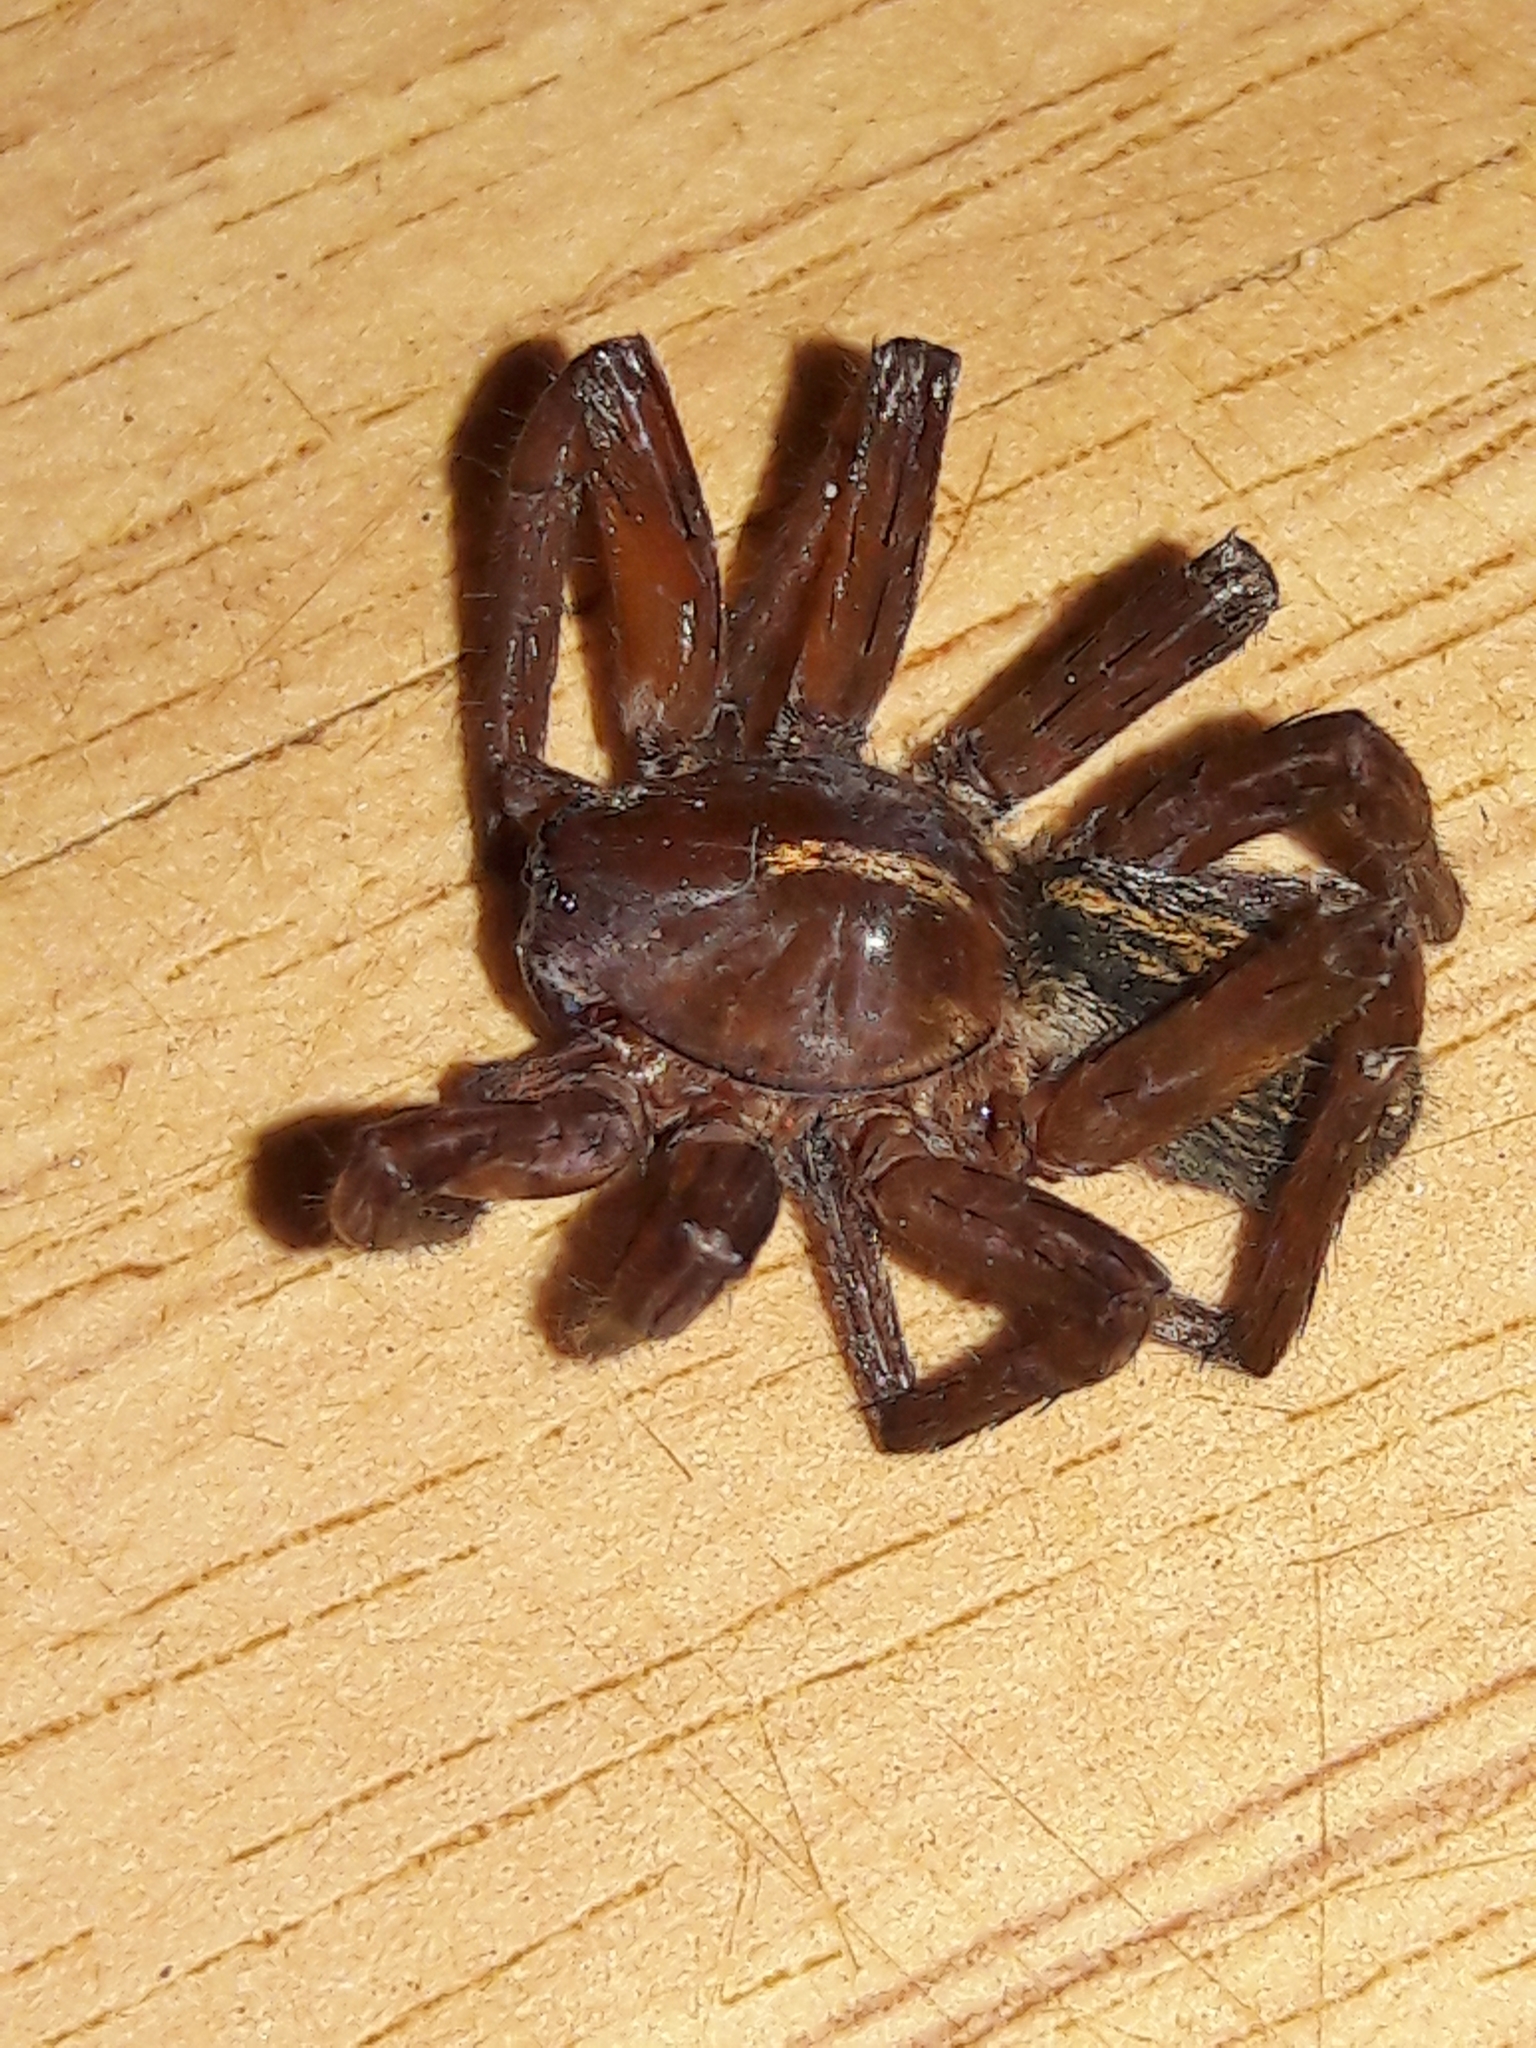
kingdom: Animalia
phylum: Arthropoda
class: Arachnida
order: Araneae
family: Ctenidae
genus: Isoctenus
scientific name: Isoctenus coxalis
